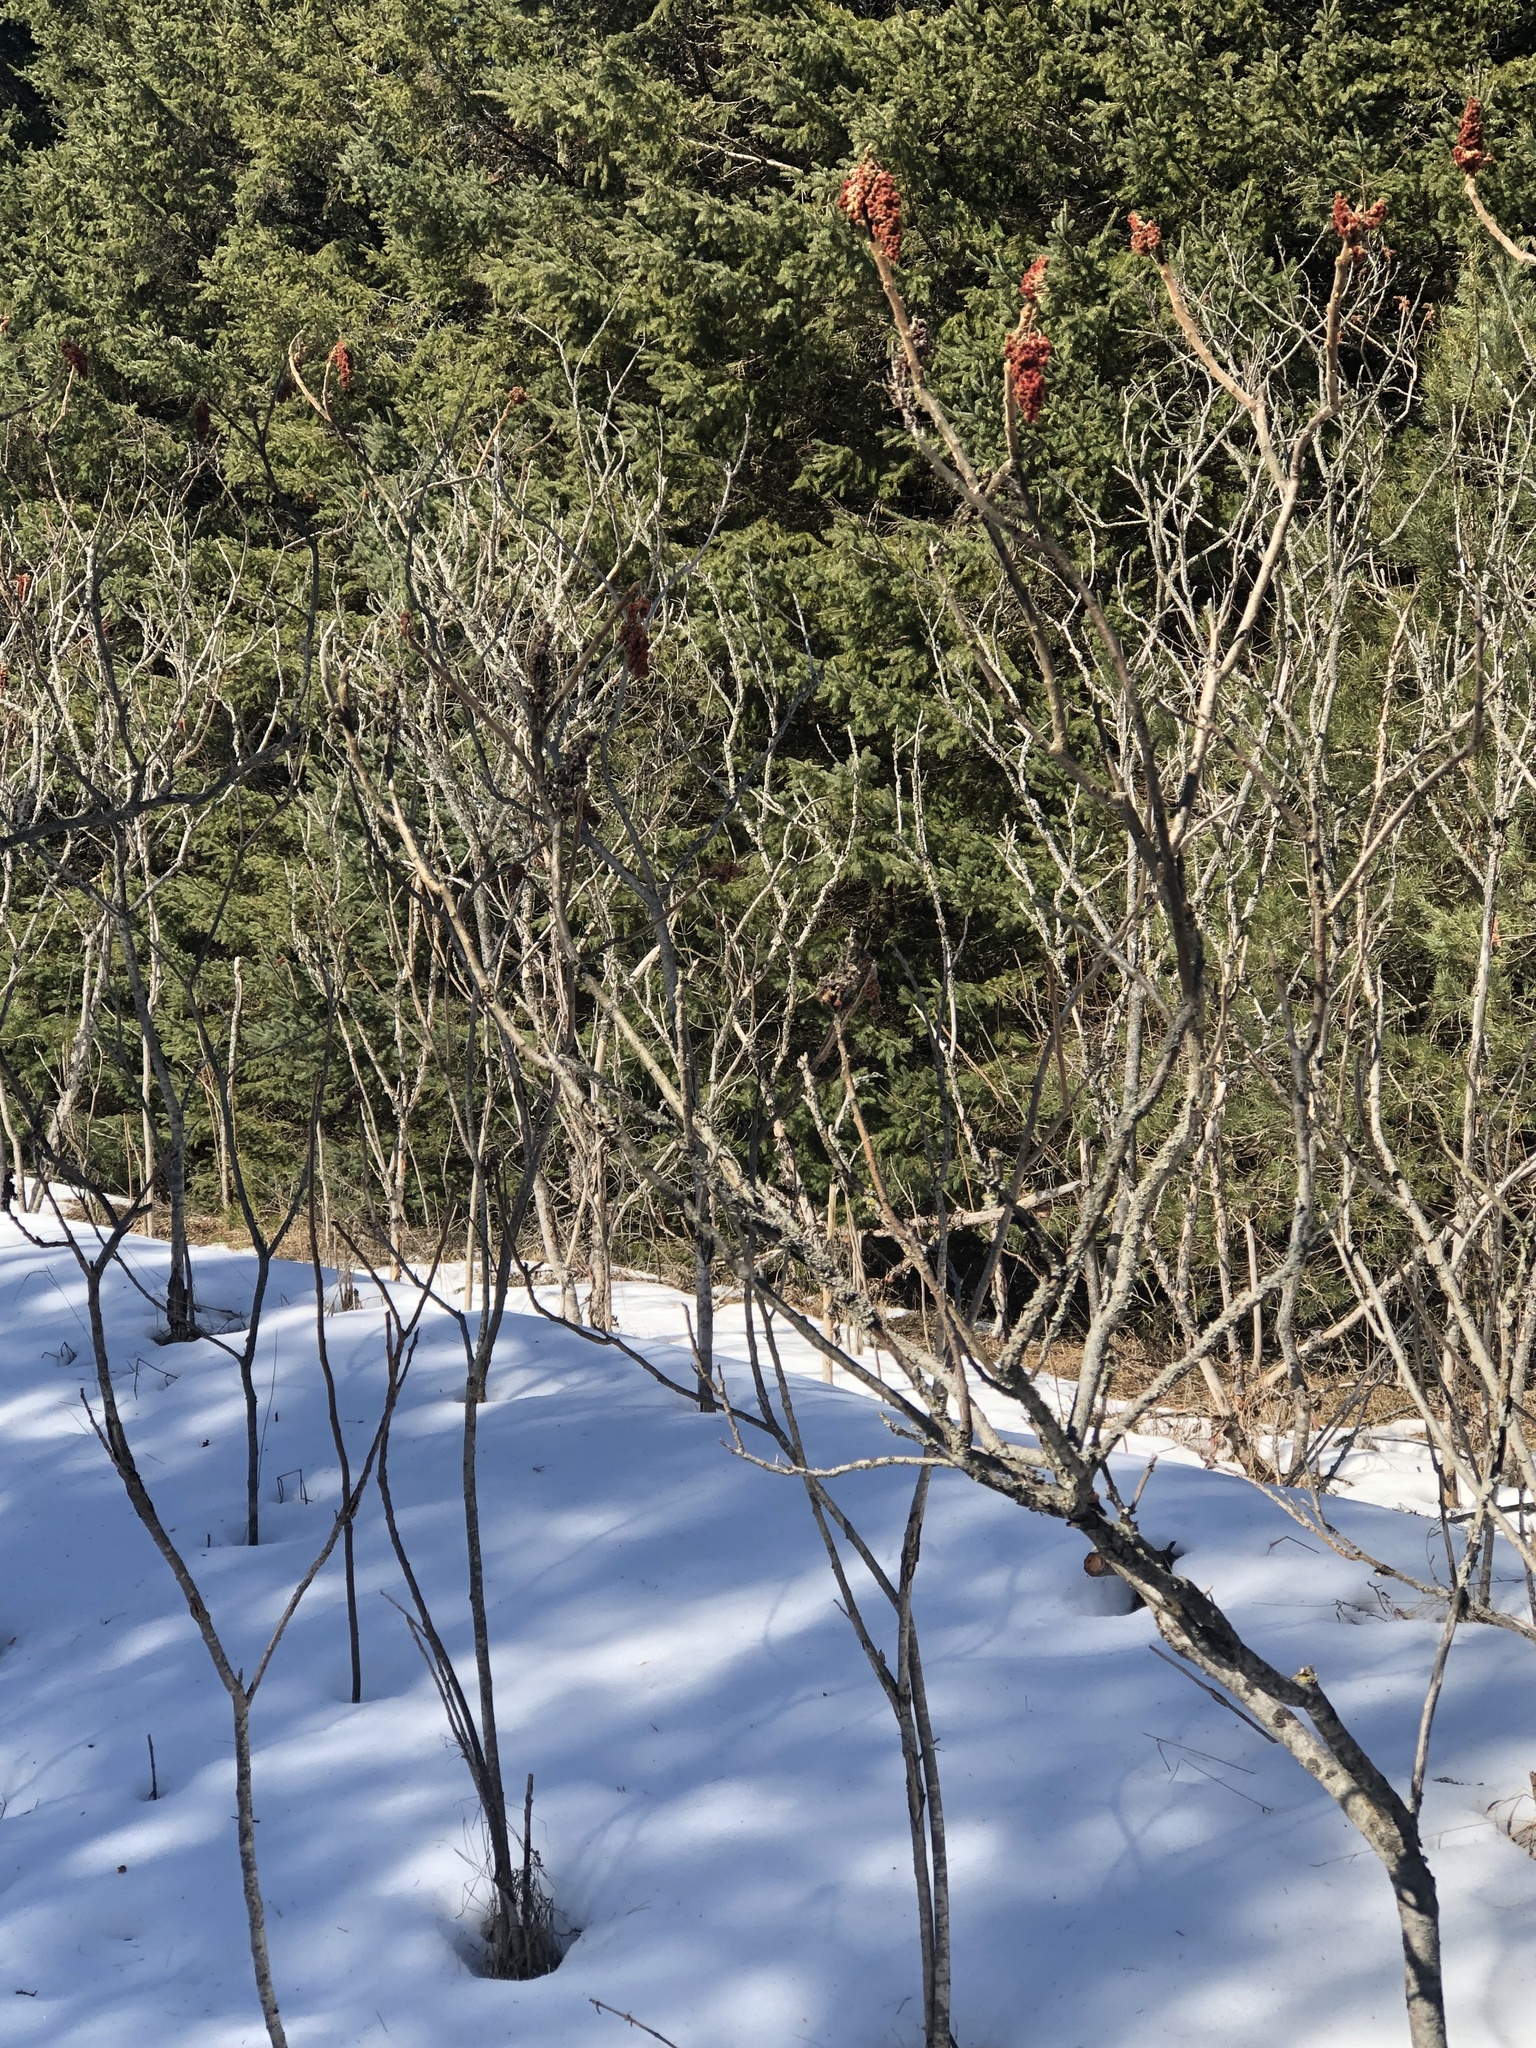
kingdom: Plantae
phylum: Tracheophyta
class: Magnoliopsida
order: Sapindales
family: Anacardiaceae
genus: Rhus
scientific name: Rhus typhina
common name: Staghorn sumac
